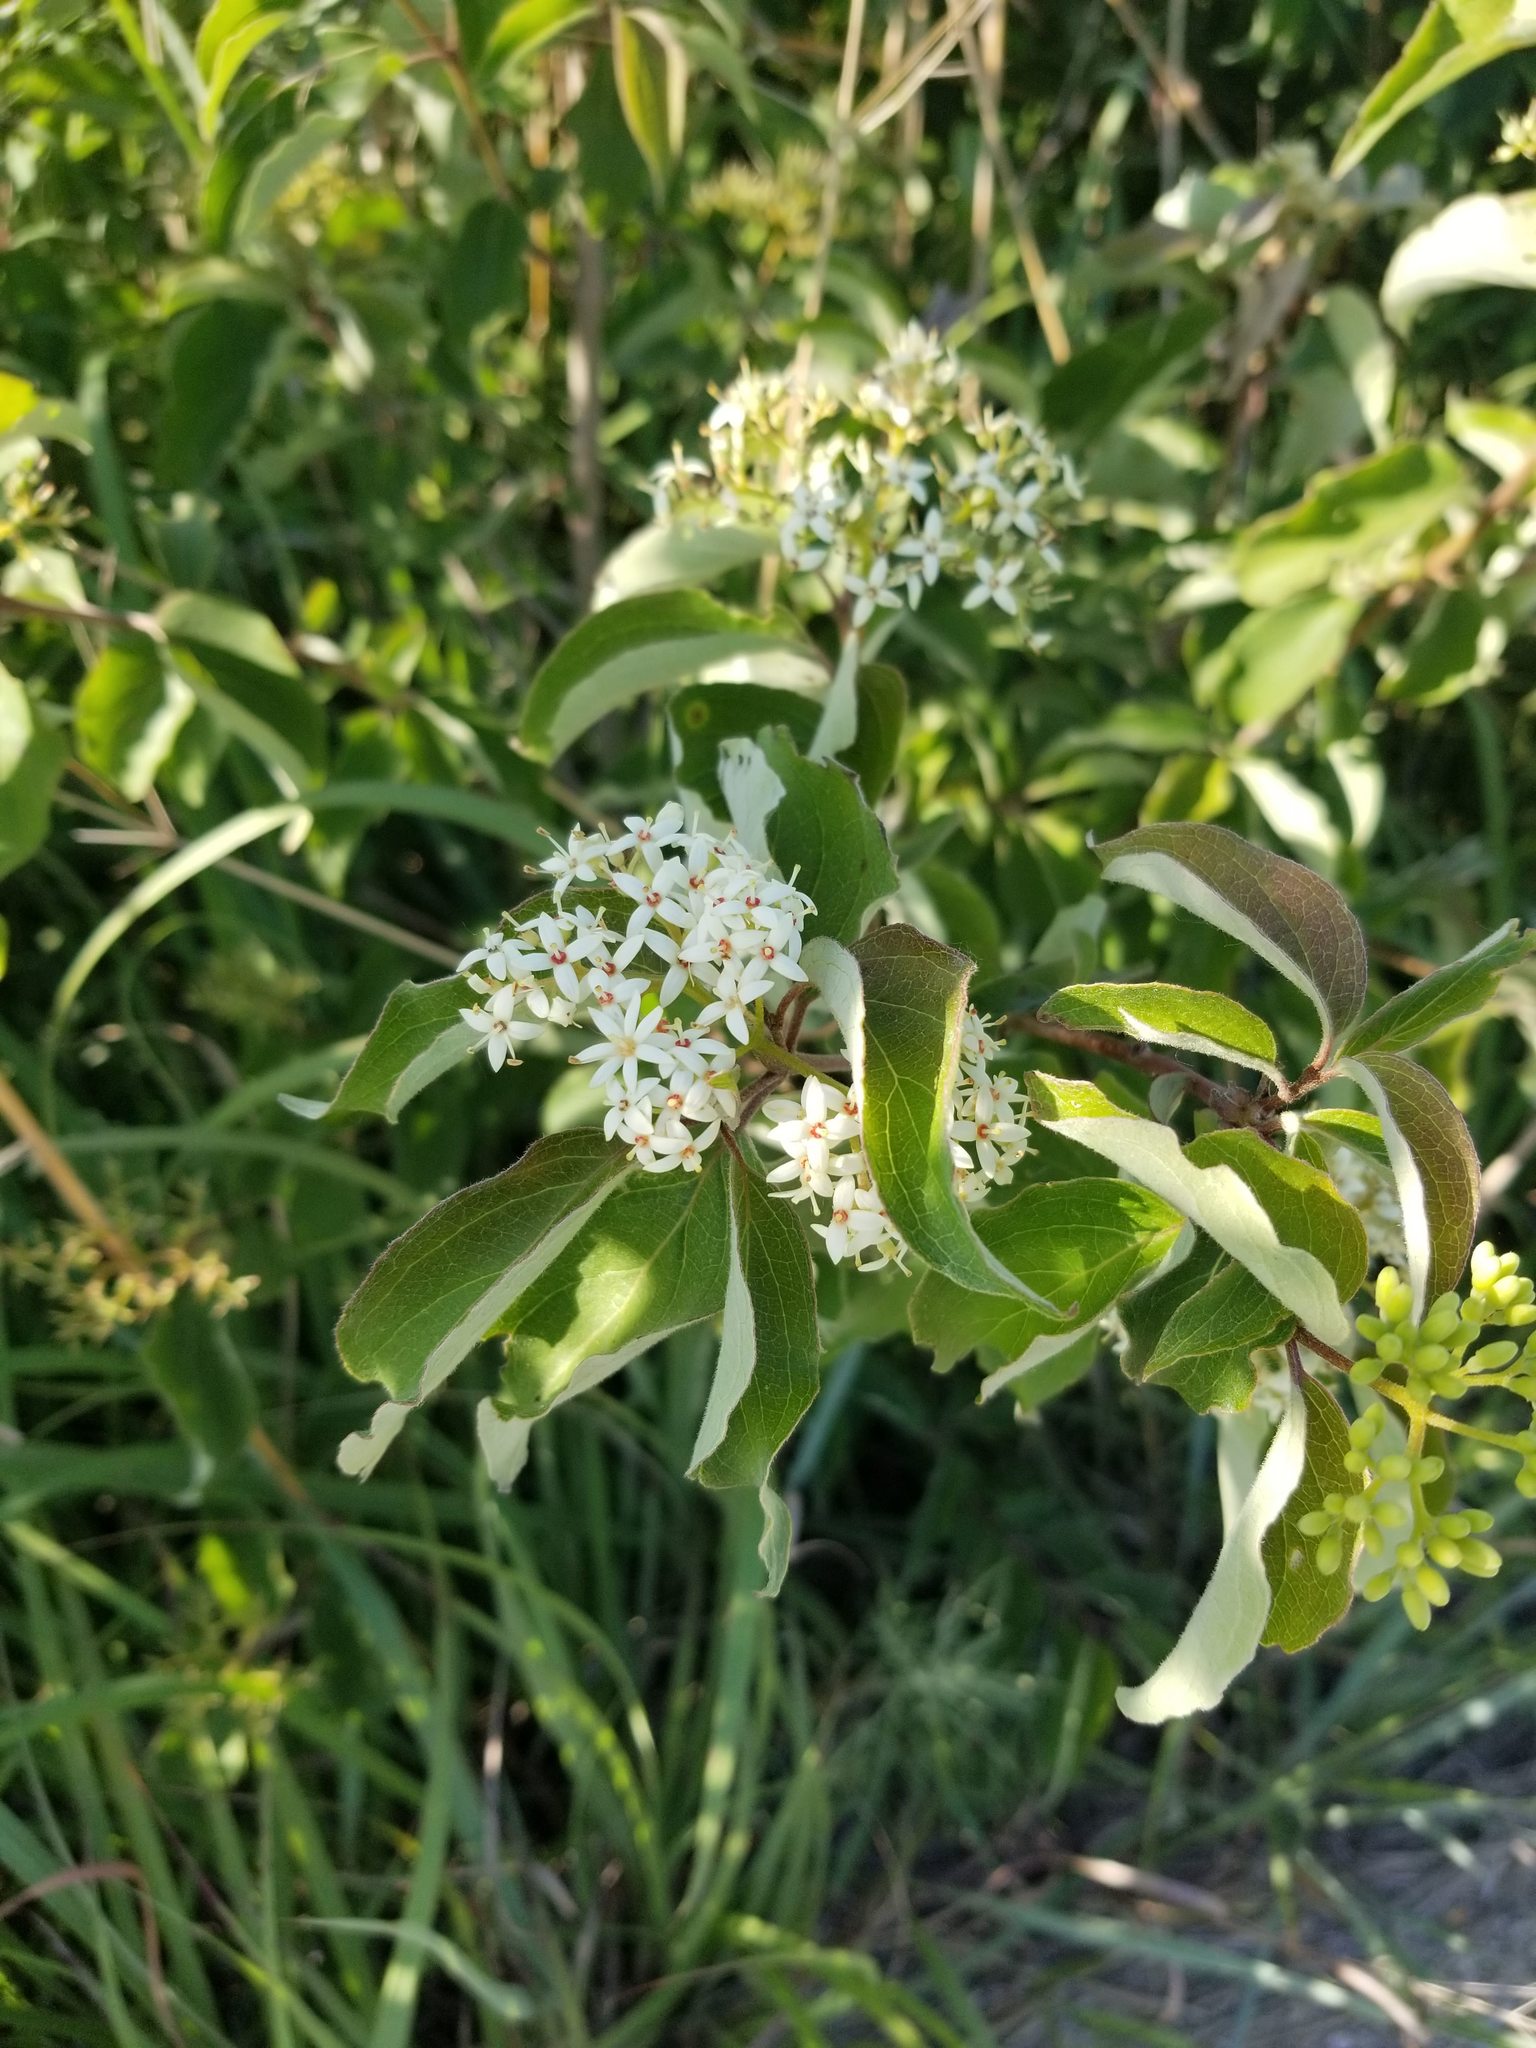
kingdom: Plantae
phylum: Tracheophyta
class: Magnoliopsida
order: Cornales
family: Cornaceae
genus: Cornus
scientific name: Cornus drummondii
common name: Rough-leaf dogwood
